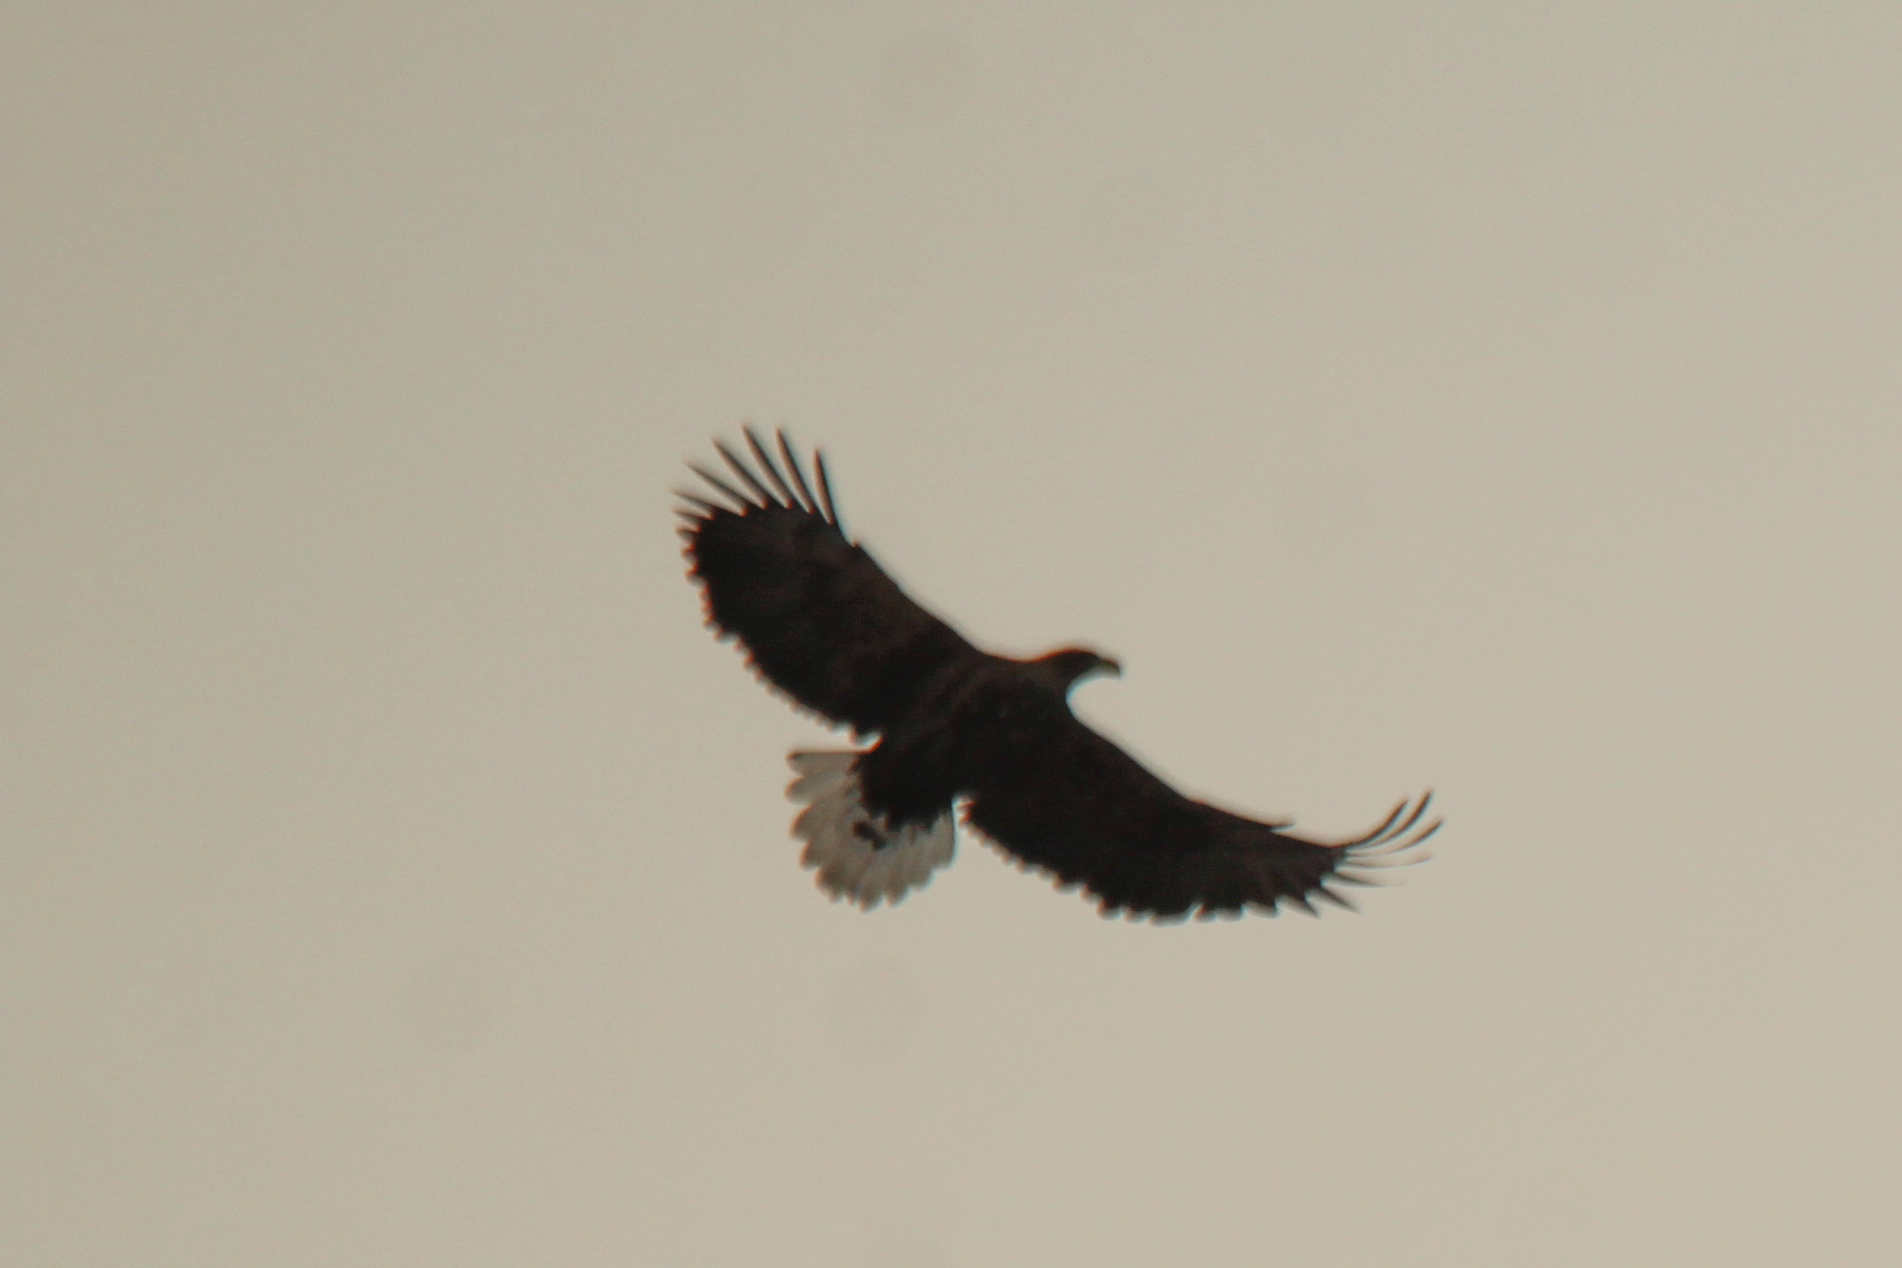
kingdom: Animalia
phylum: Chordata
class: Aves
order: Accipitriformes
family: Accipitridae
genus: Haliaeetus
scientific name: Haliaeetus albicilla
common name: White-tailed eagle
